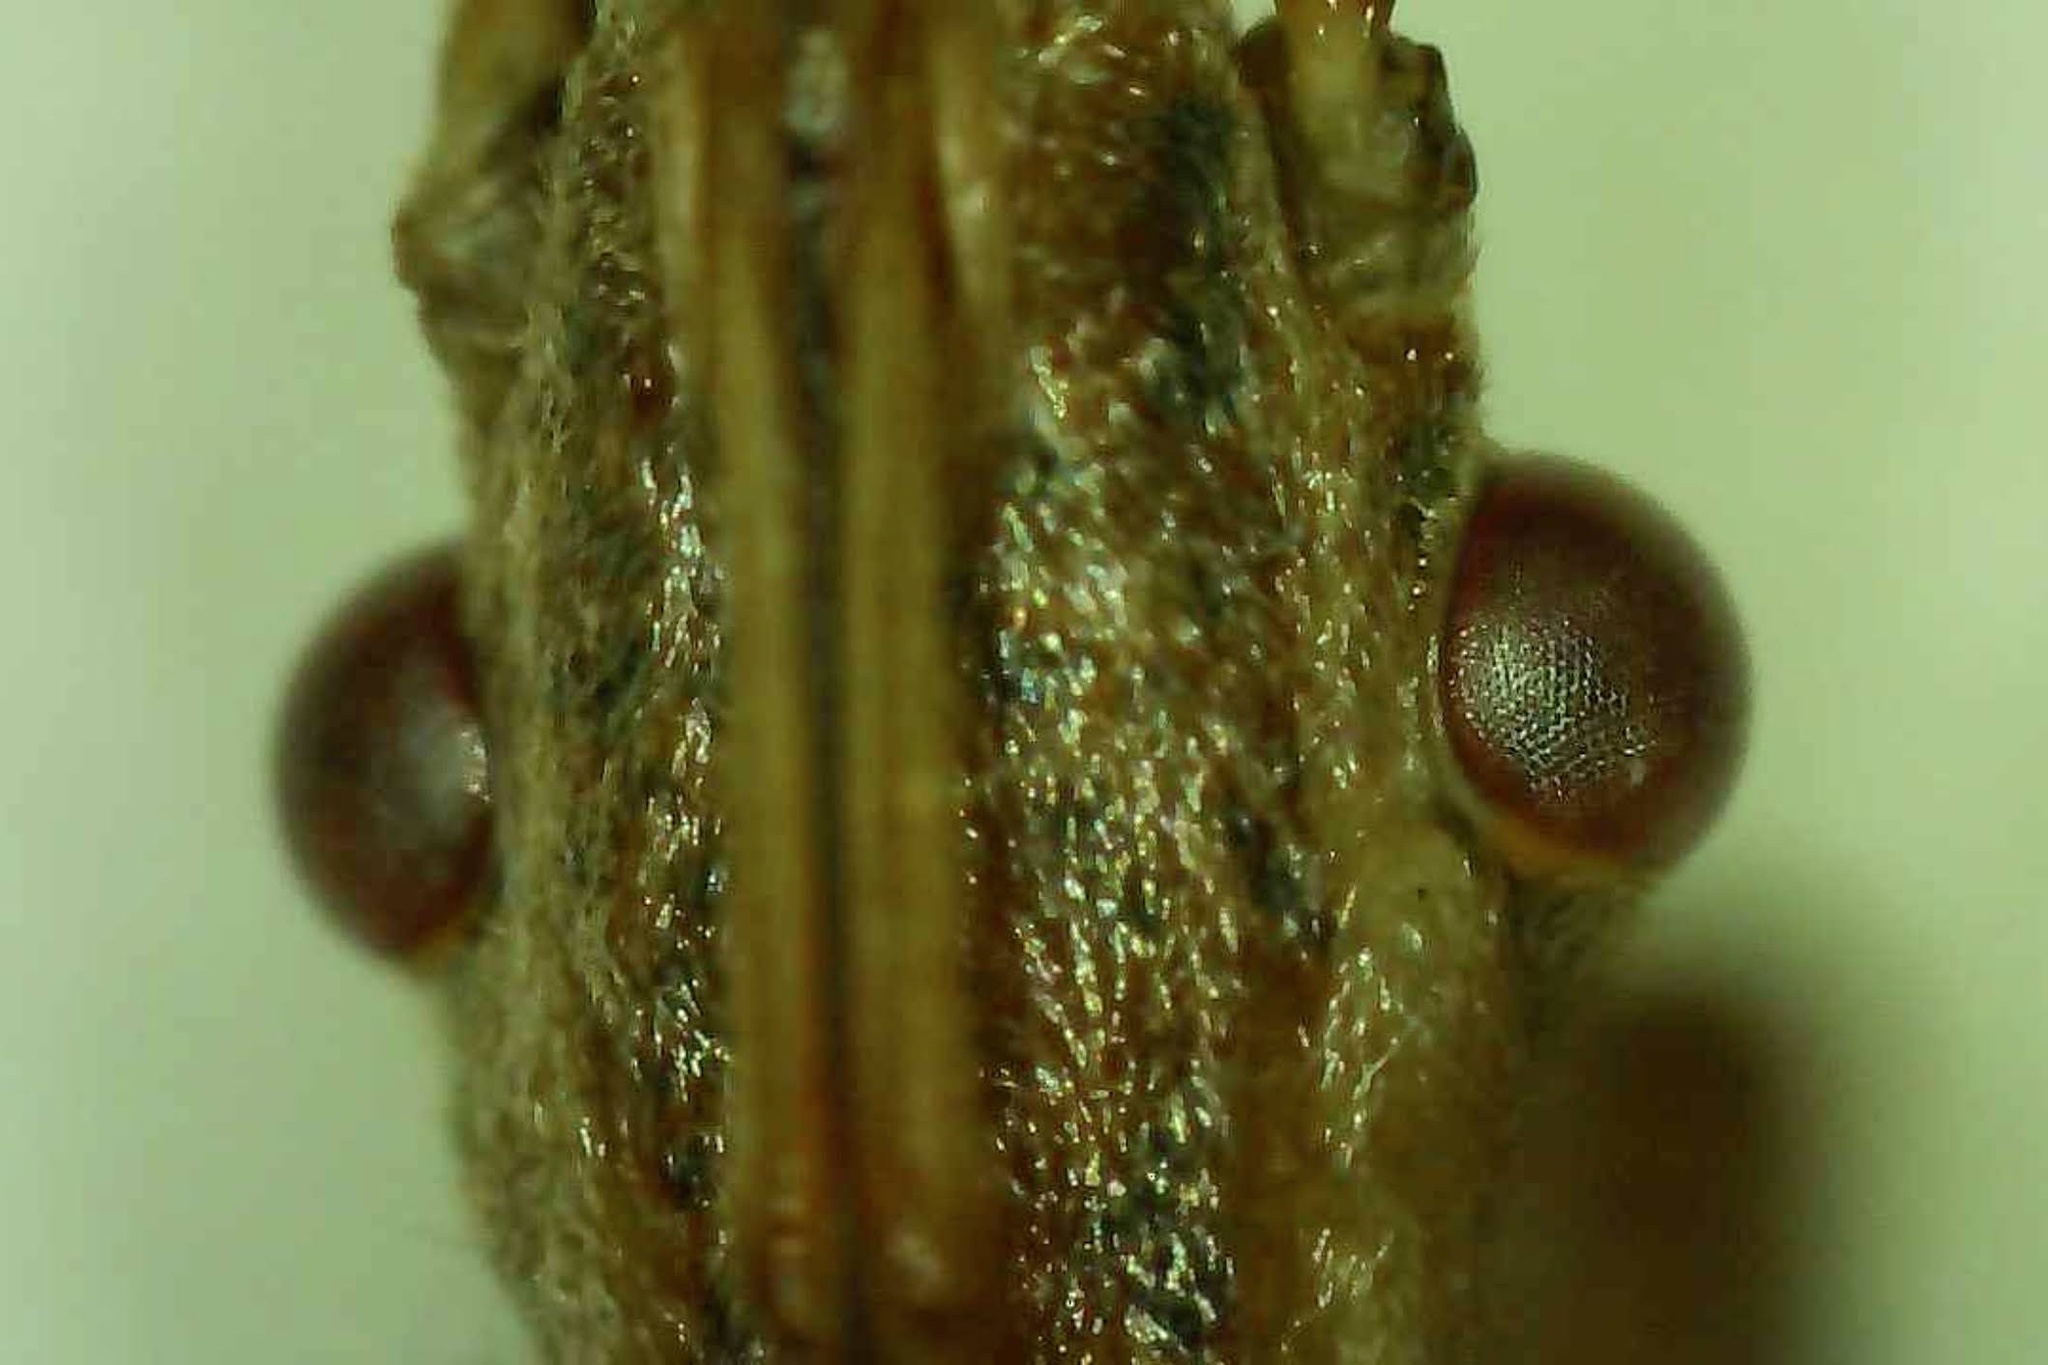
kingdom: Animalia
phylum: Arthropoda
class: Insecta
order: Hemiptera
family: Coreidae
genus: Leptoglossus
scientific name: Leptoglossus clypealis
